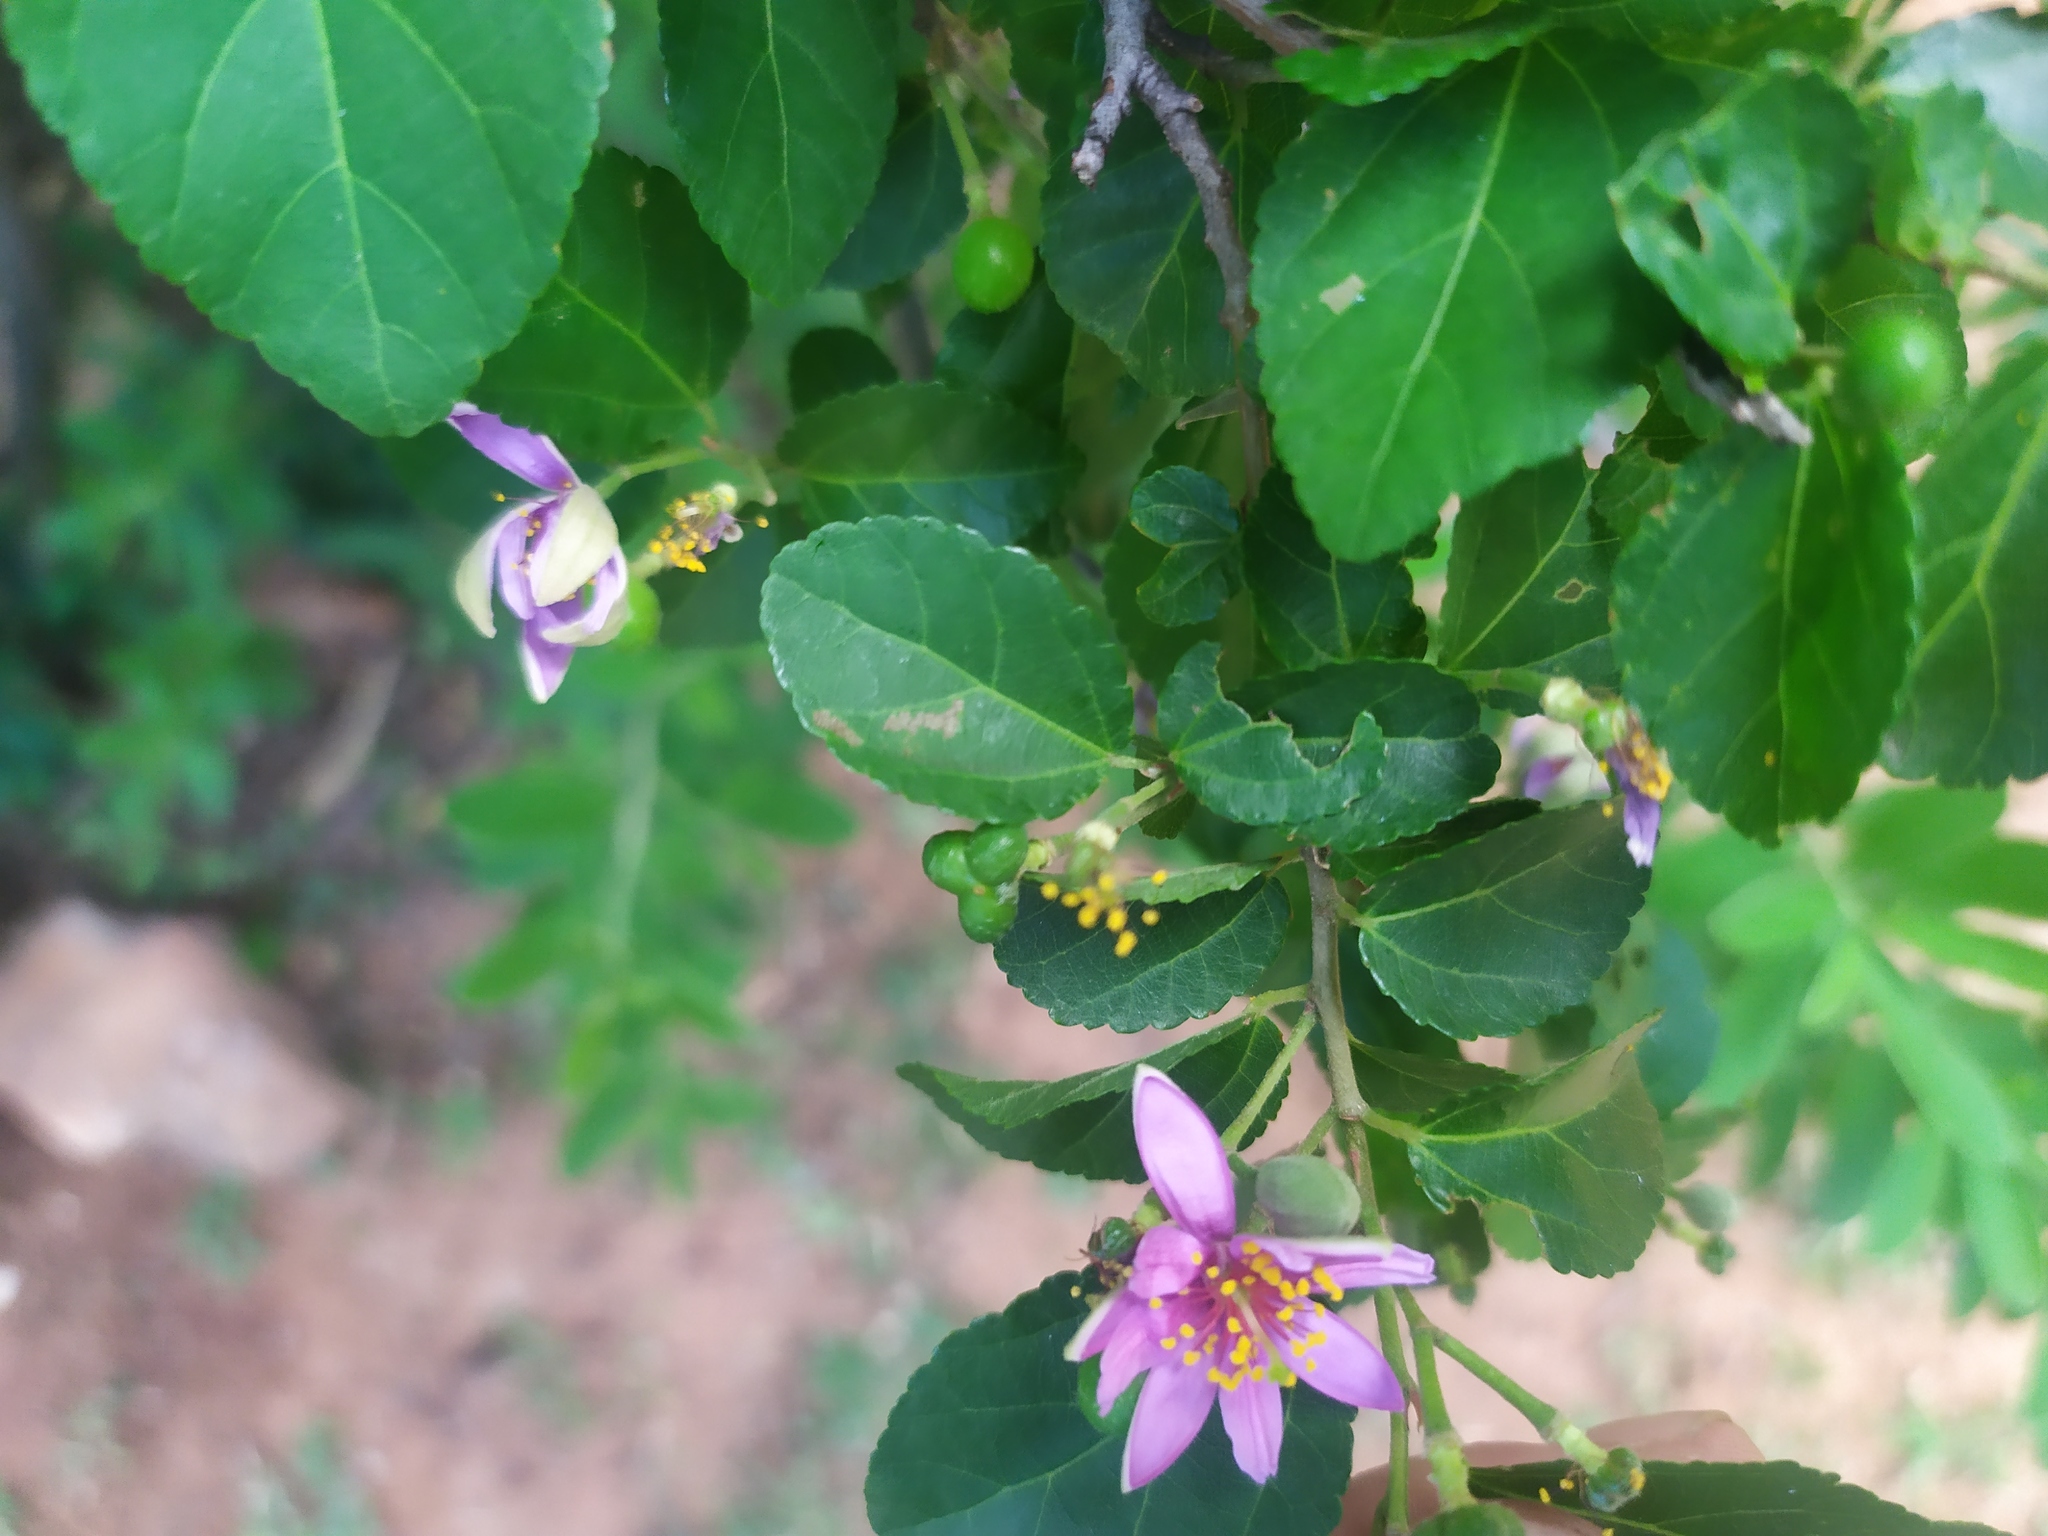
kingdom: Plantae
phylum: Tracheophyta
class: Magnoliopsida
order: Malvales
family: Malvaceae
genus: Grewia
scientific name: Grewia occidentalis
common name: Crossberry
